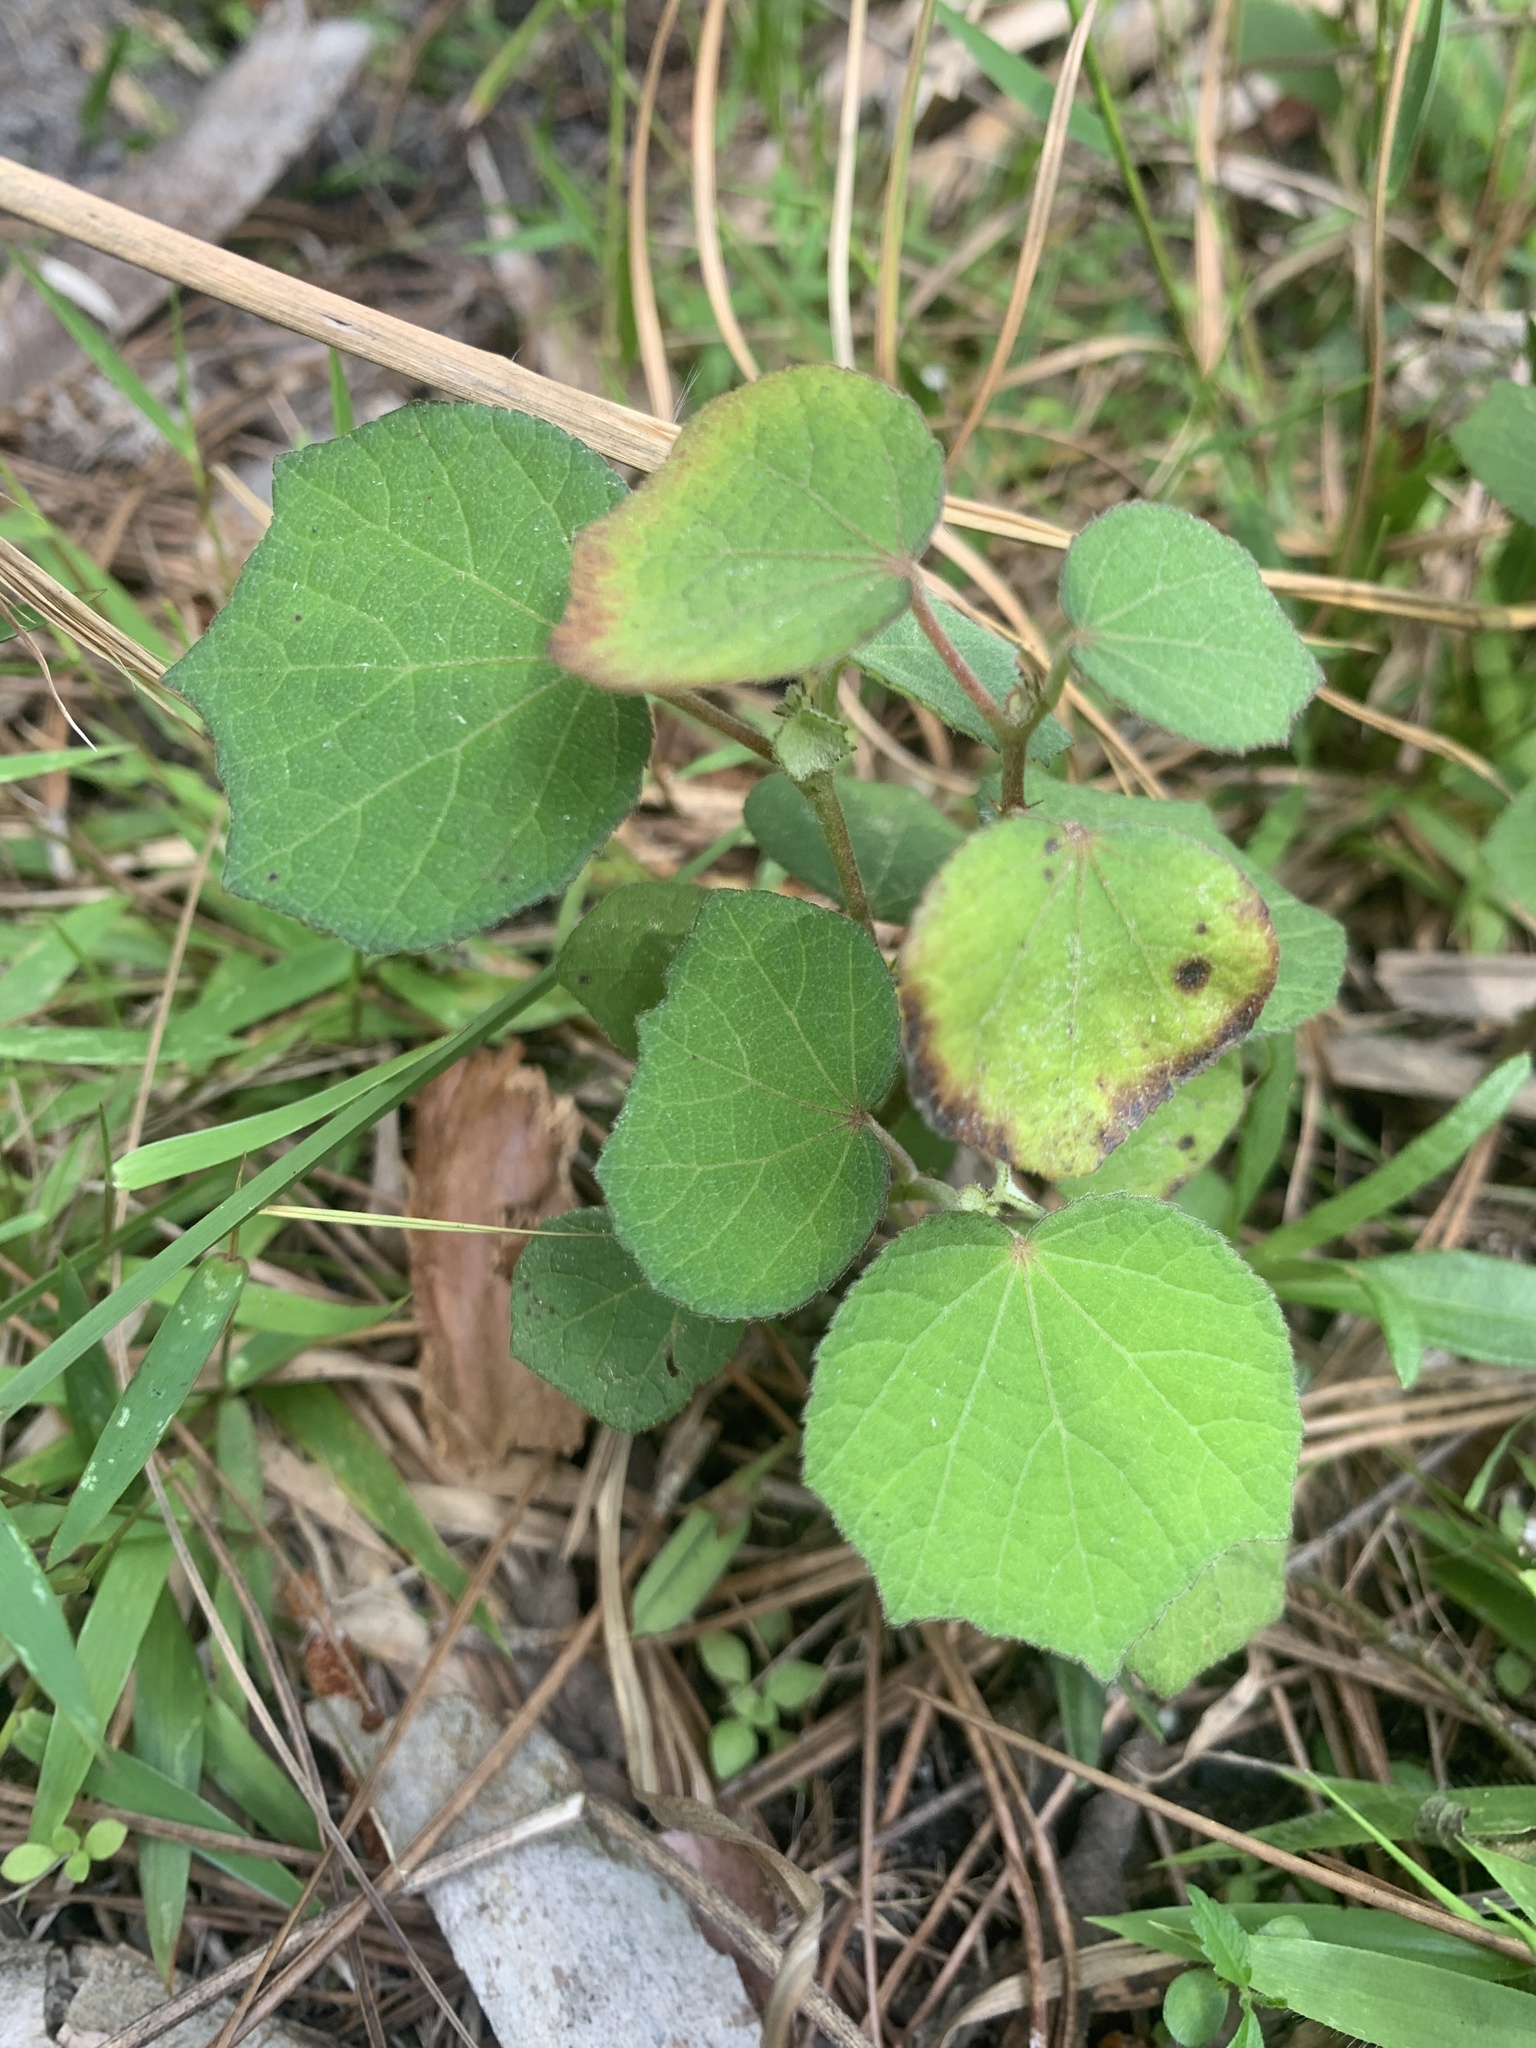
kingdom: Plantae
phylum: Tracheophyta
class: Magnoliopsida
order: Malvales
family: Malvaceae
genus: Urena
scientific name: Urena lobata
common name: Caesarweed
